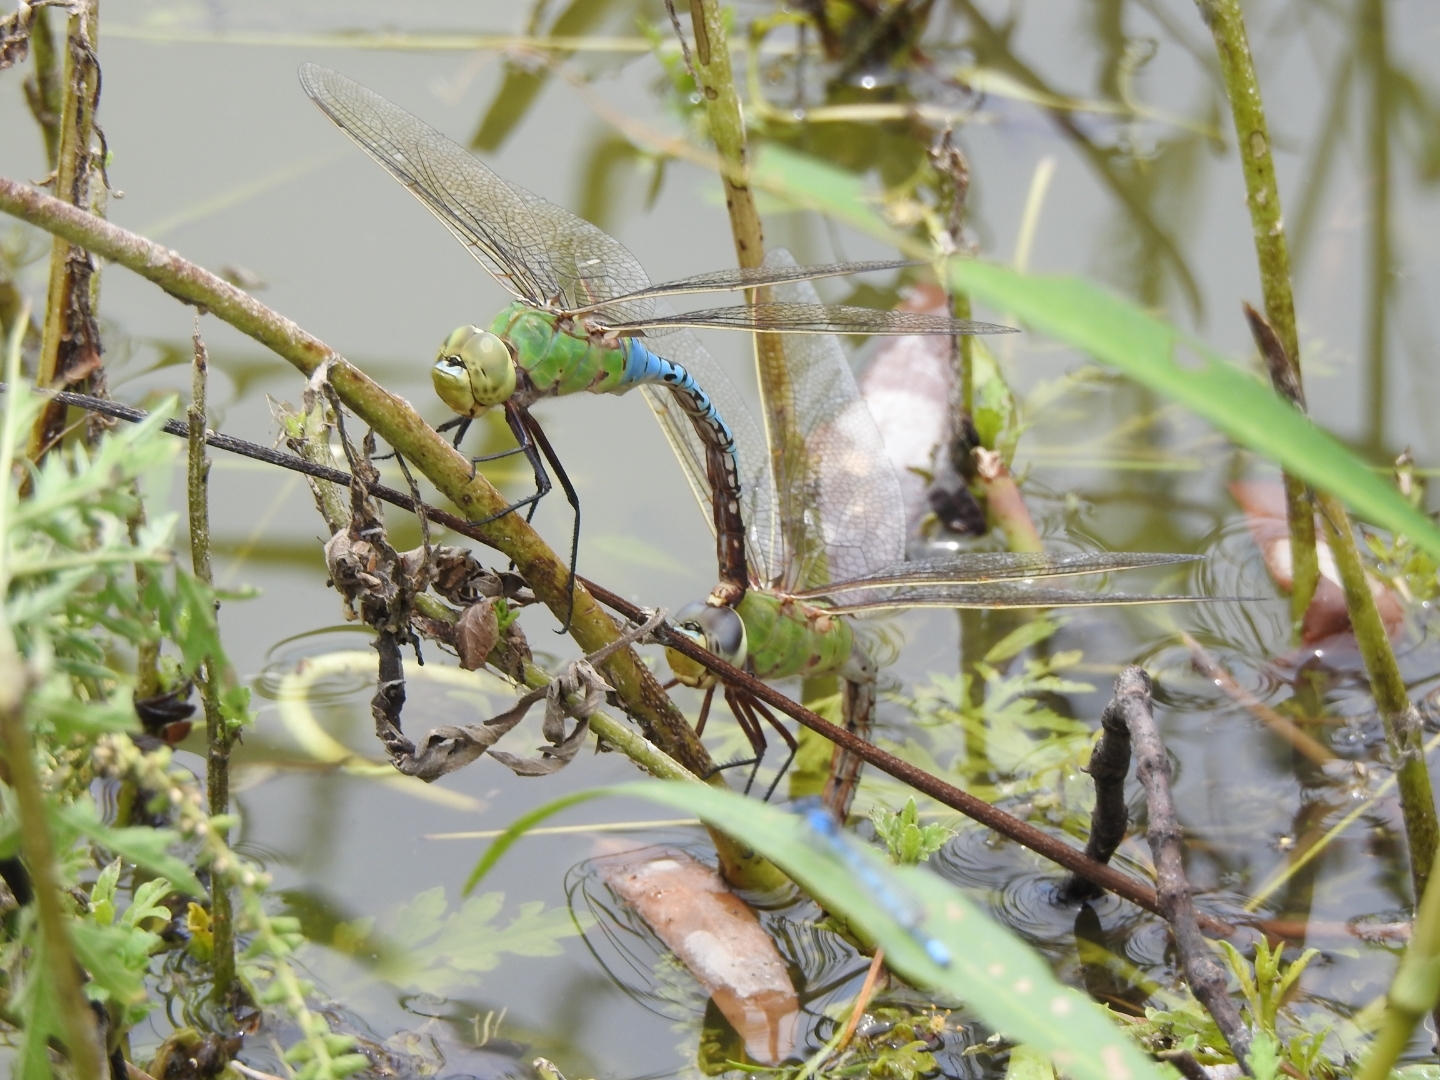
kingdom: Animalia
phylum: Arthropoda
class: Insecta
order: Odonata
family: Aeshnidae
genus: Anax
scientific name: Anax junius
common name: Common green darner
